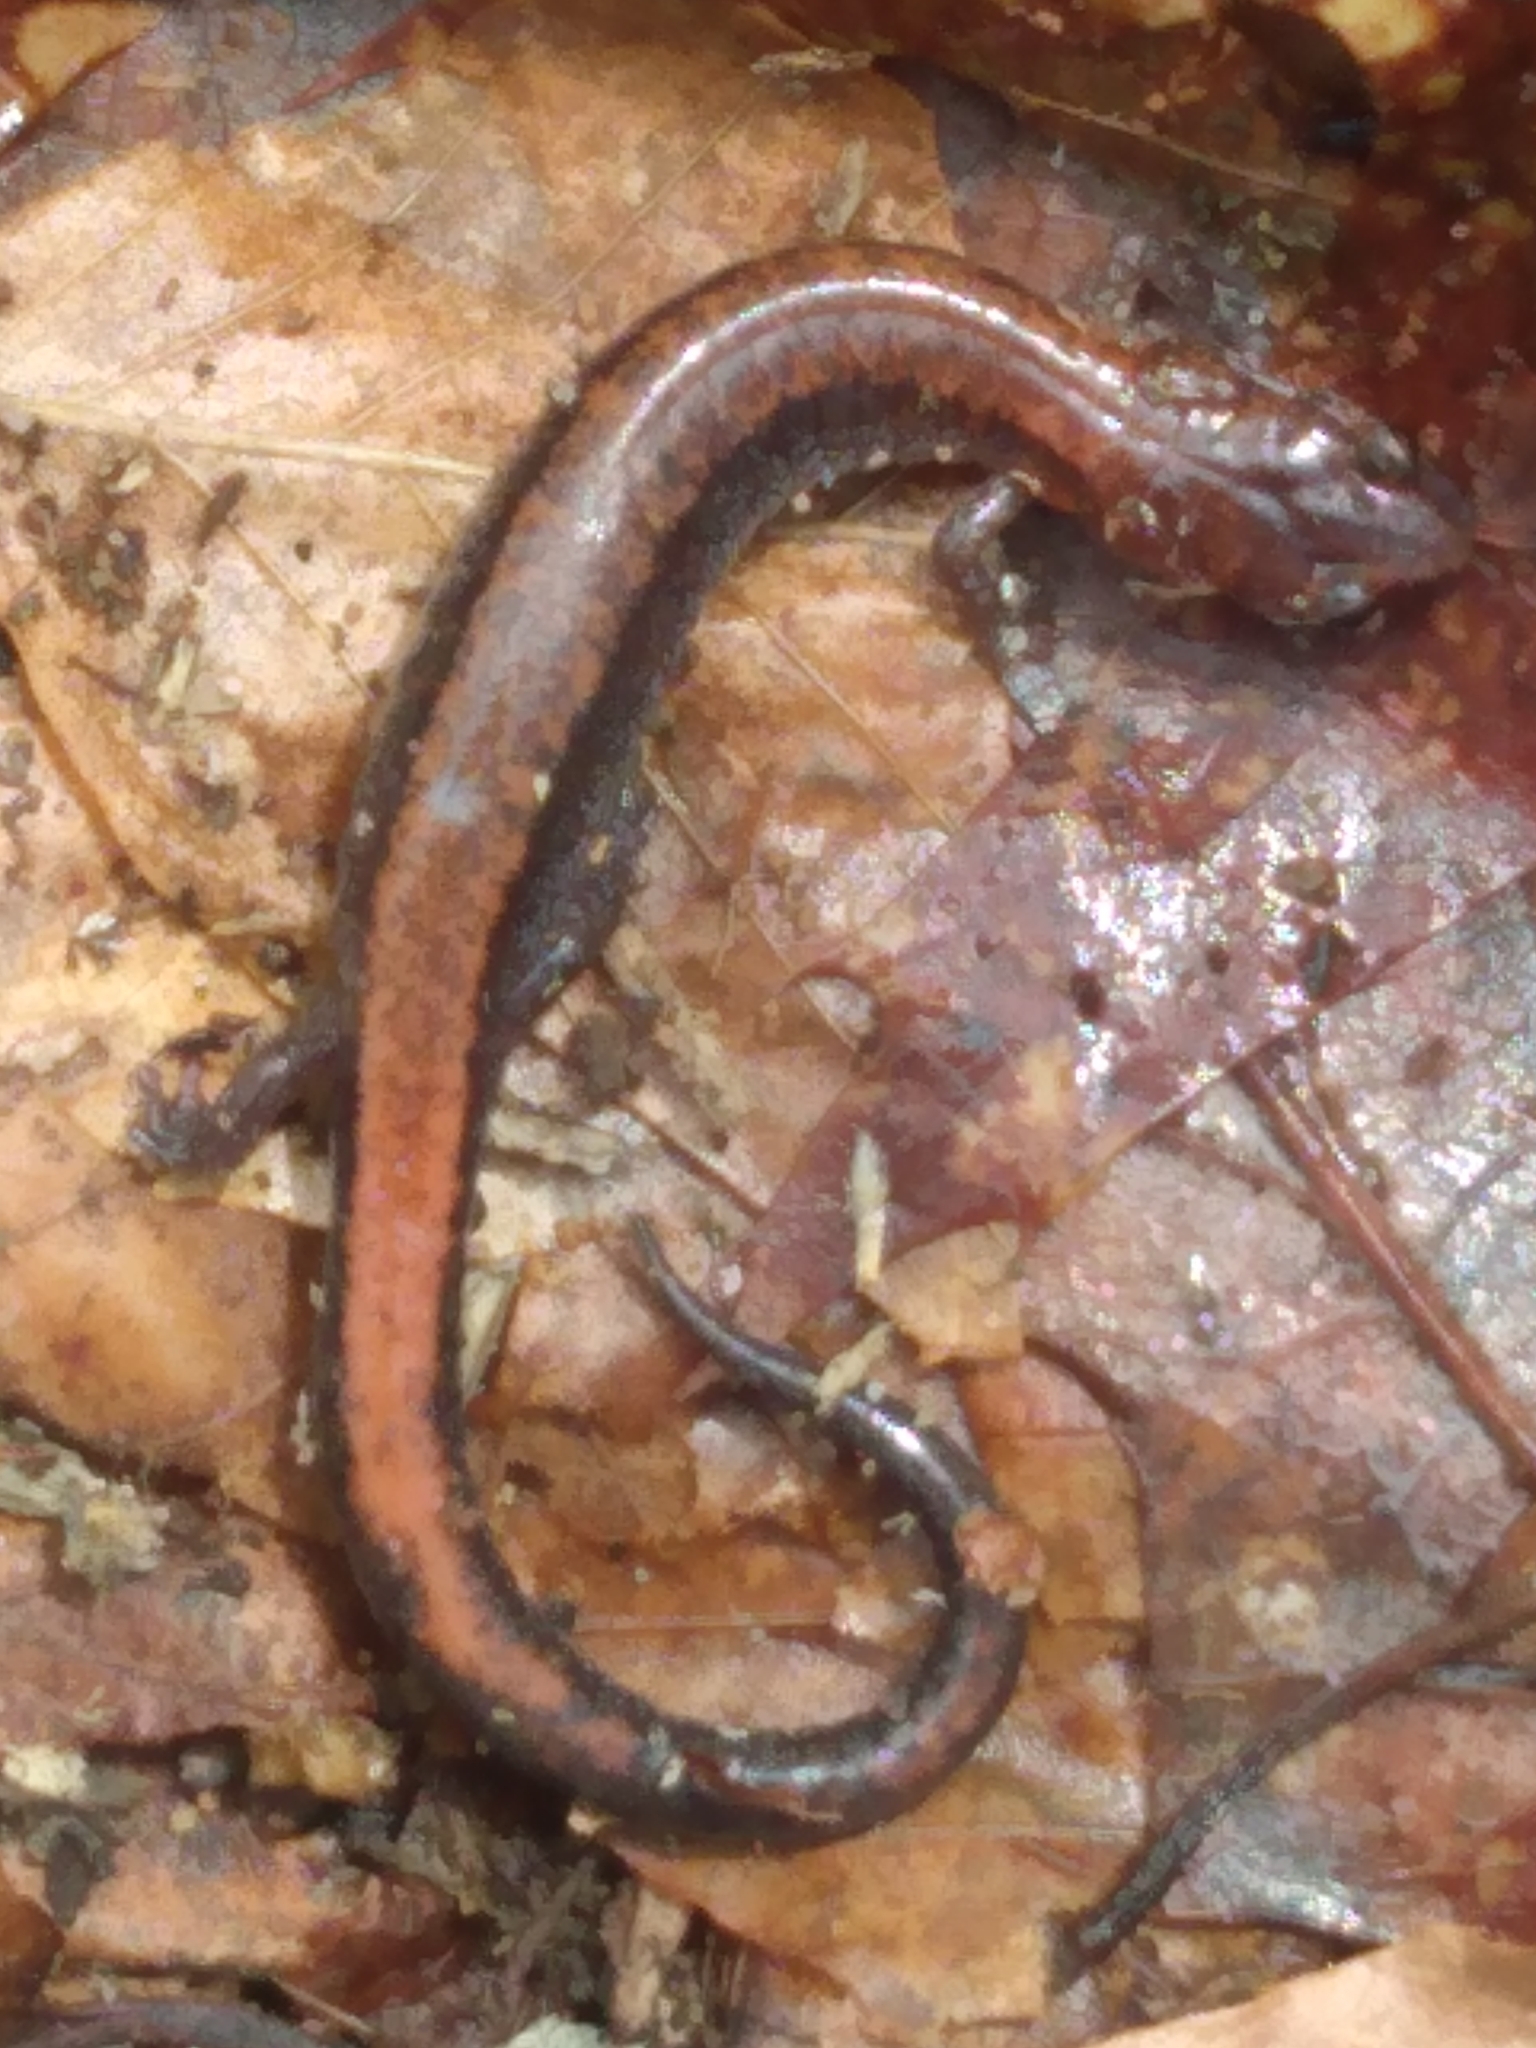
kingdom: Animalia
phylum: Chordata
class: Amphibia
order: Caudata
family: Plethodontidae
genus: Plethodon
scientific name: Plethodon cinereus
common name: Redback salamander
